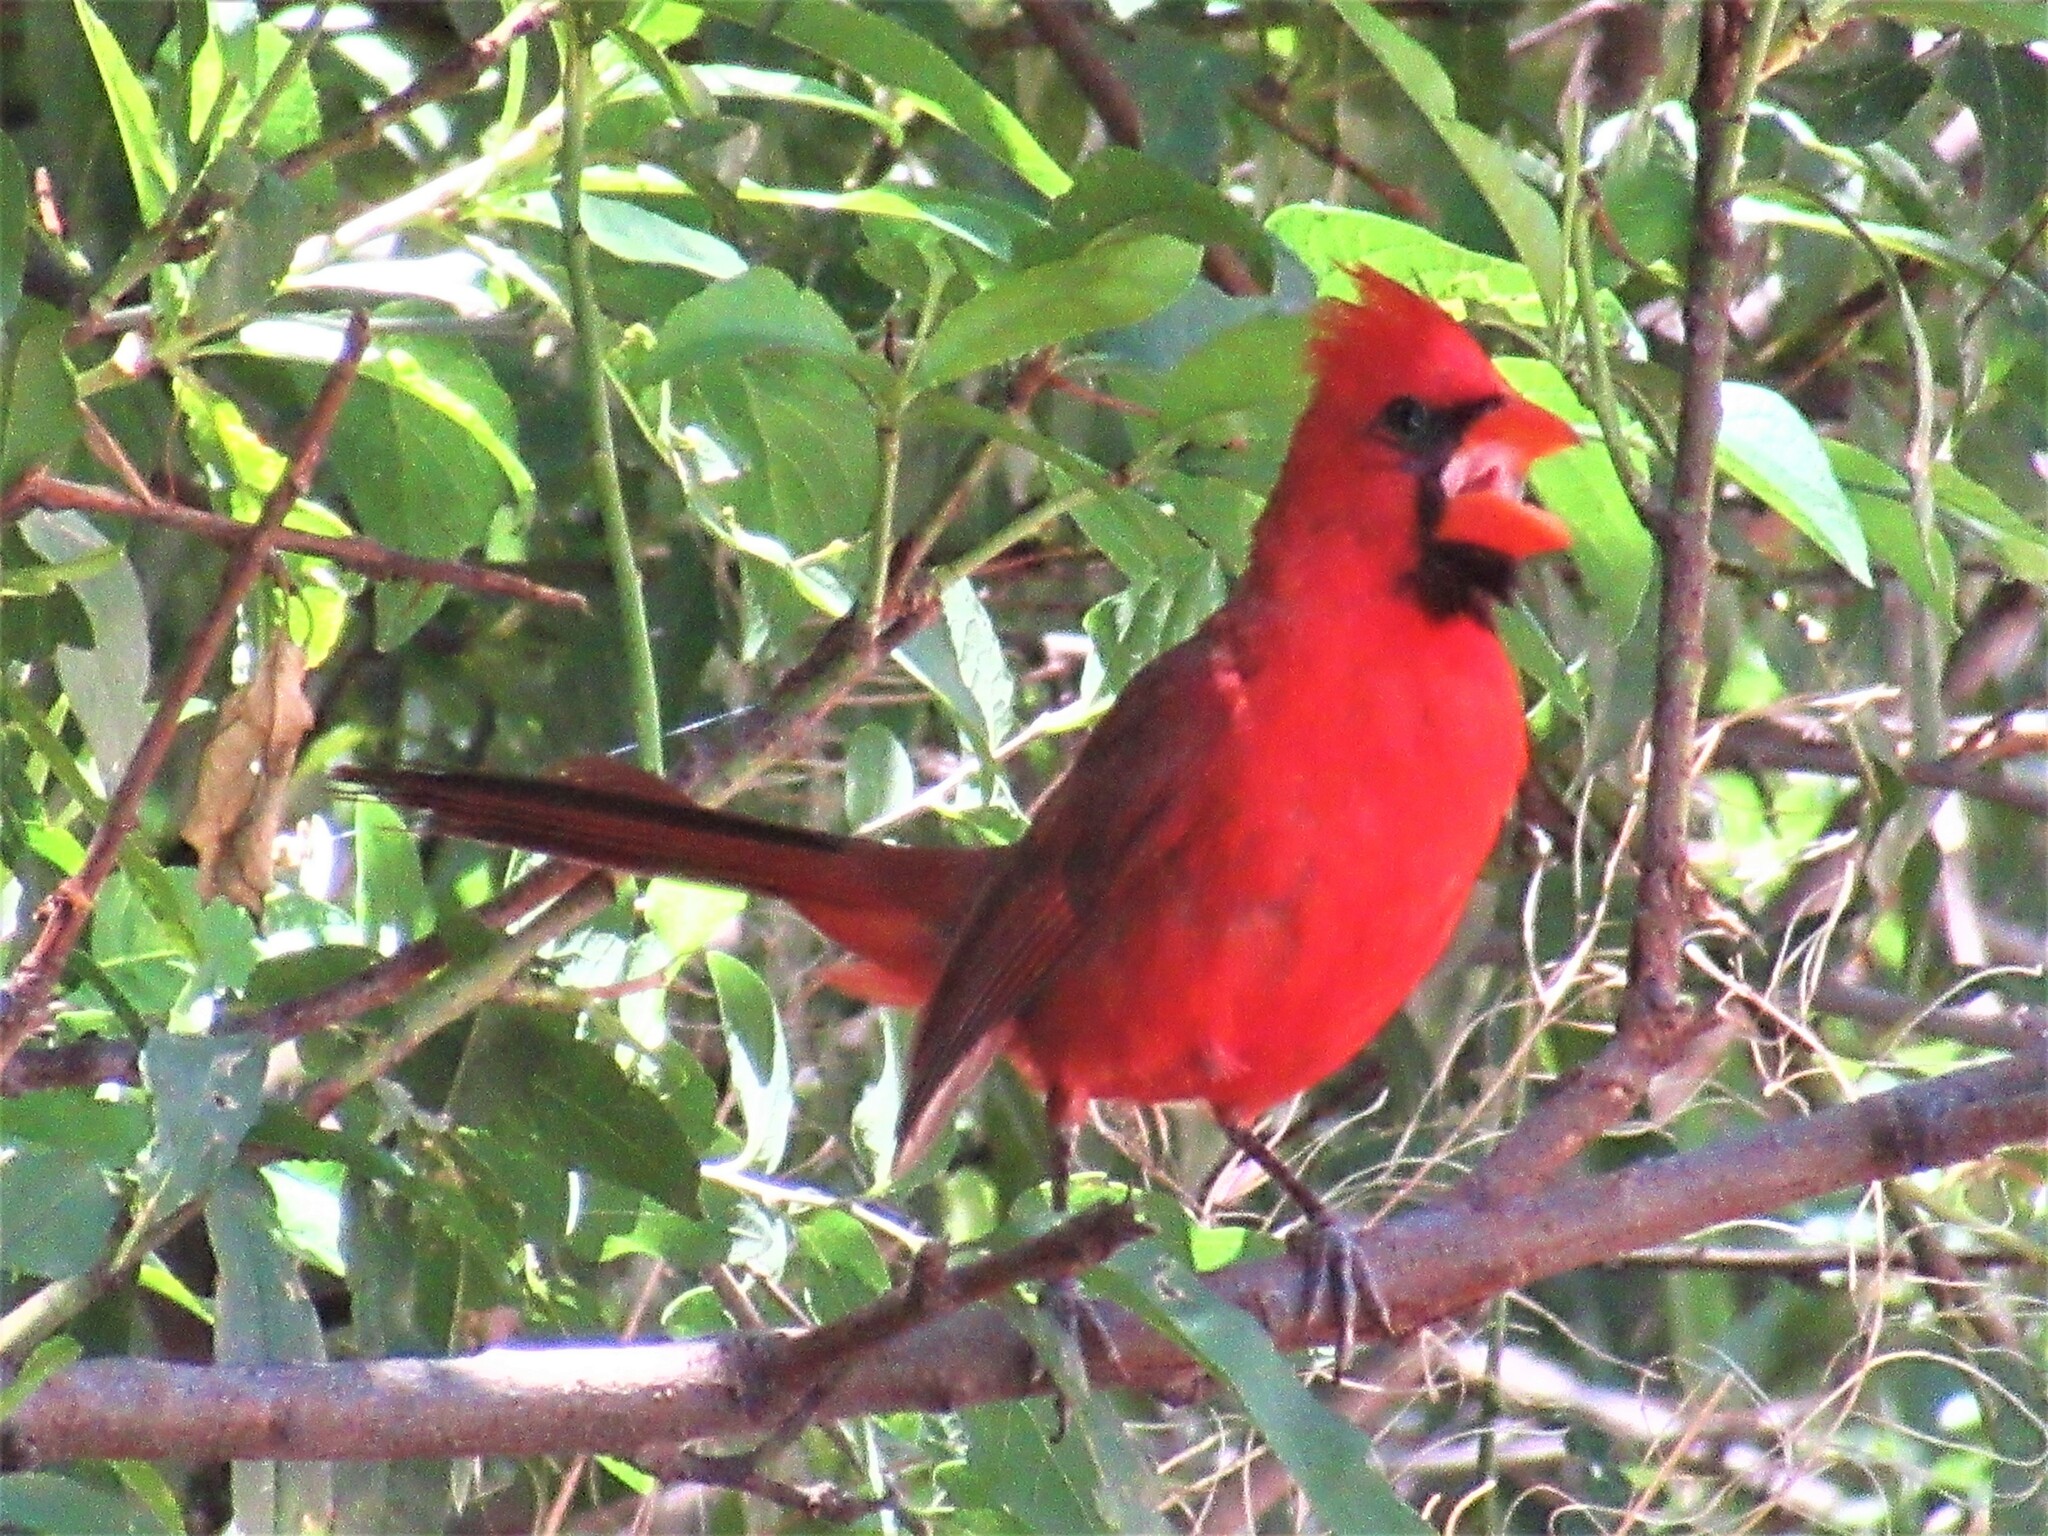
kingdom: Animalia
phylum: Chordata
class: Aves
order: Passeriformes
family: Cardinalidae
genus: Cardinalis
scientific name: Cardinalis cardinalis
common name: Northern cardinal
